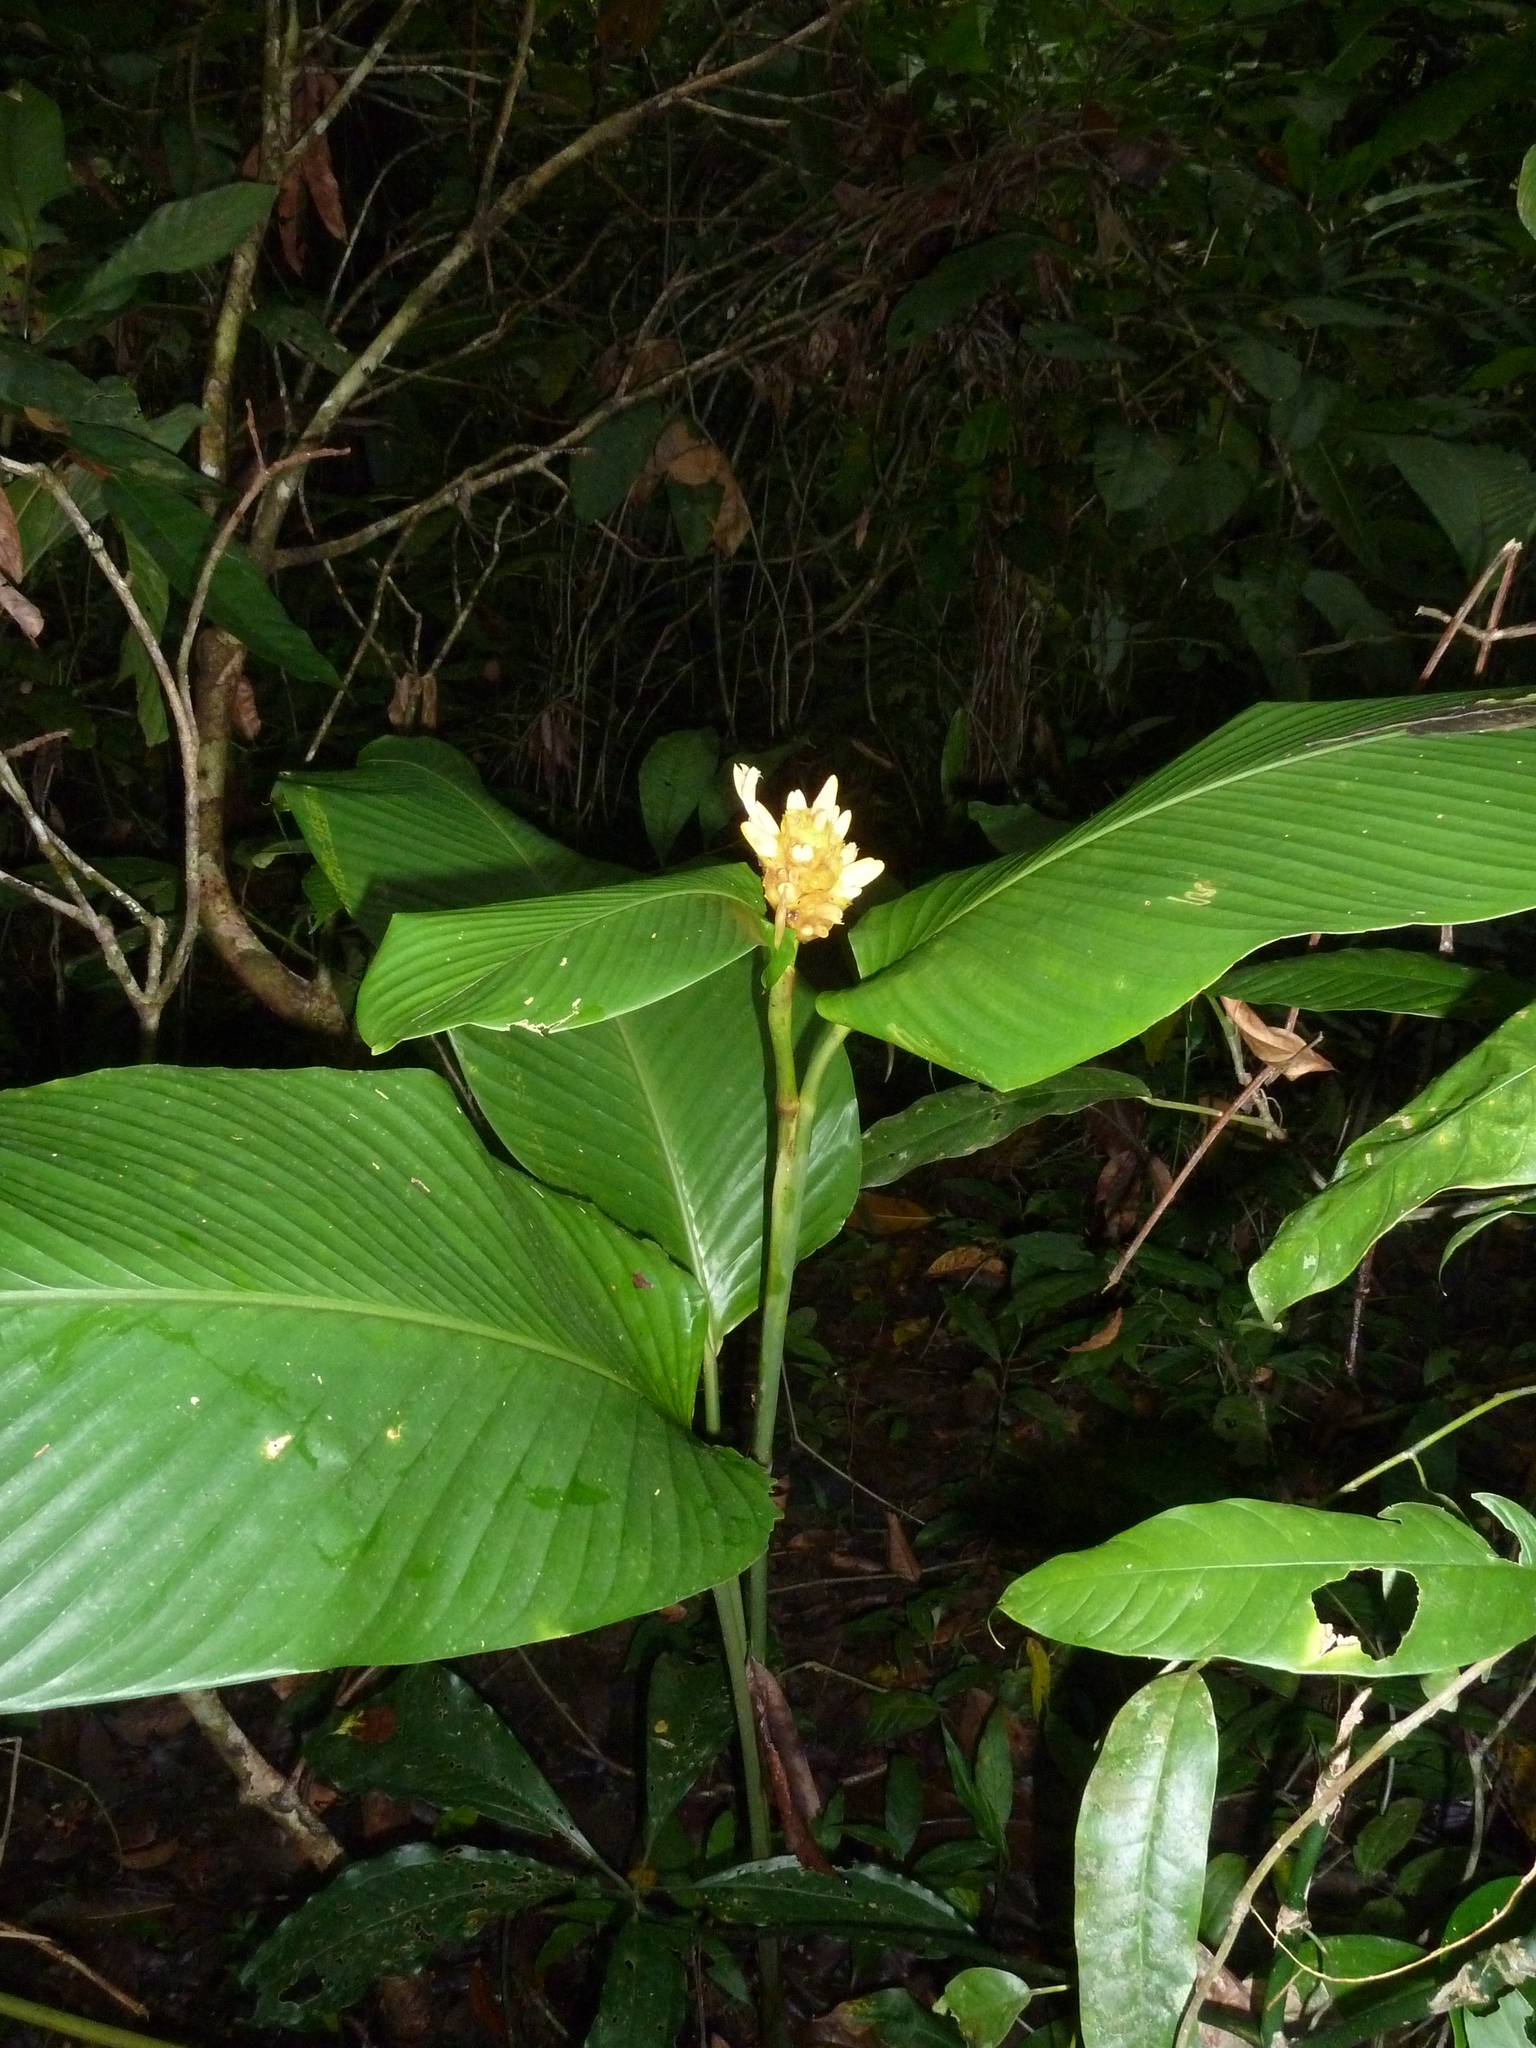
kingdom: Plantae
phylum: Tracheophyta
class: Liliopsida
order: Zingiberales
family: Marantaceae
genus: Goeppertia
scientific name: Goeppertia marantifolia
